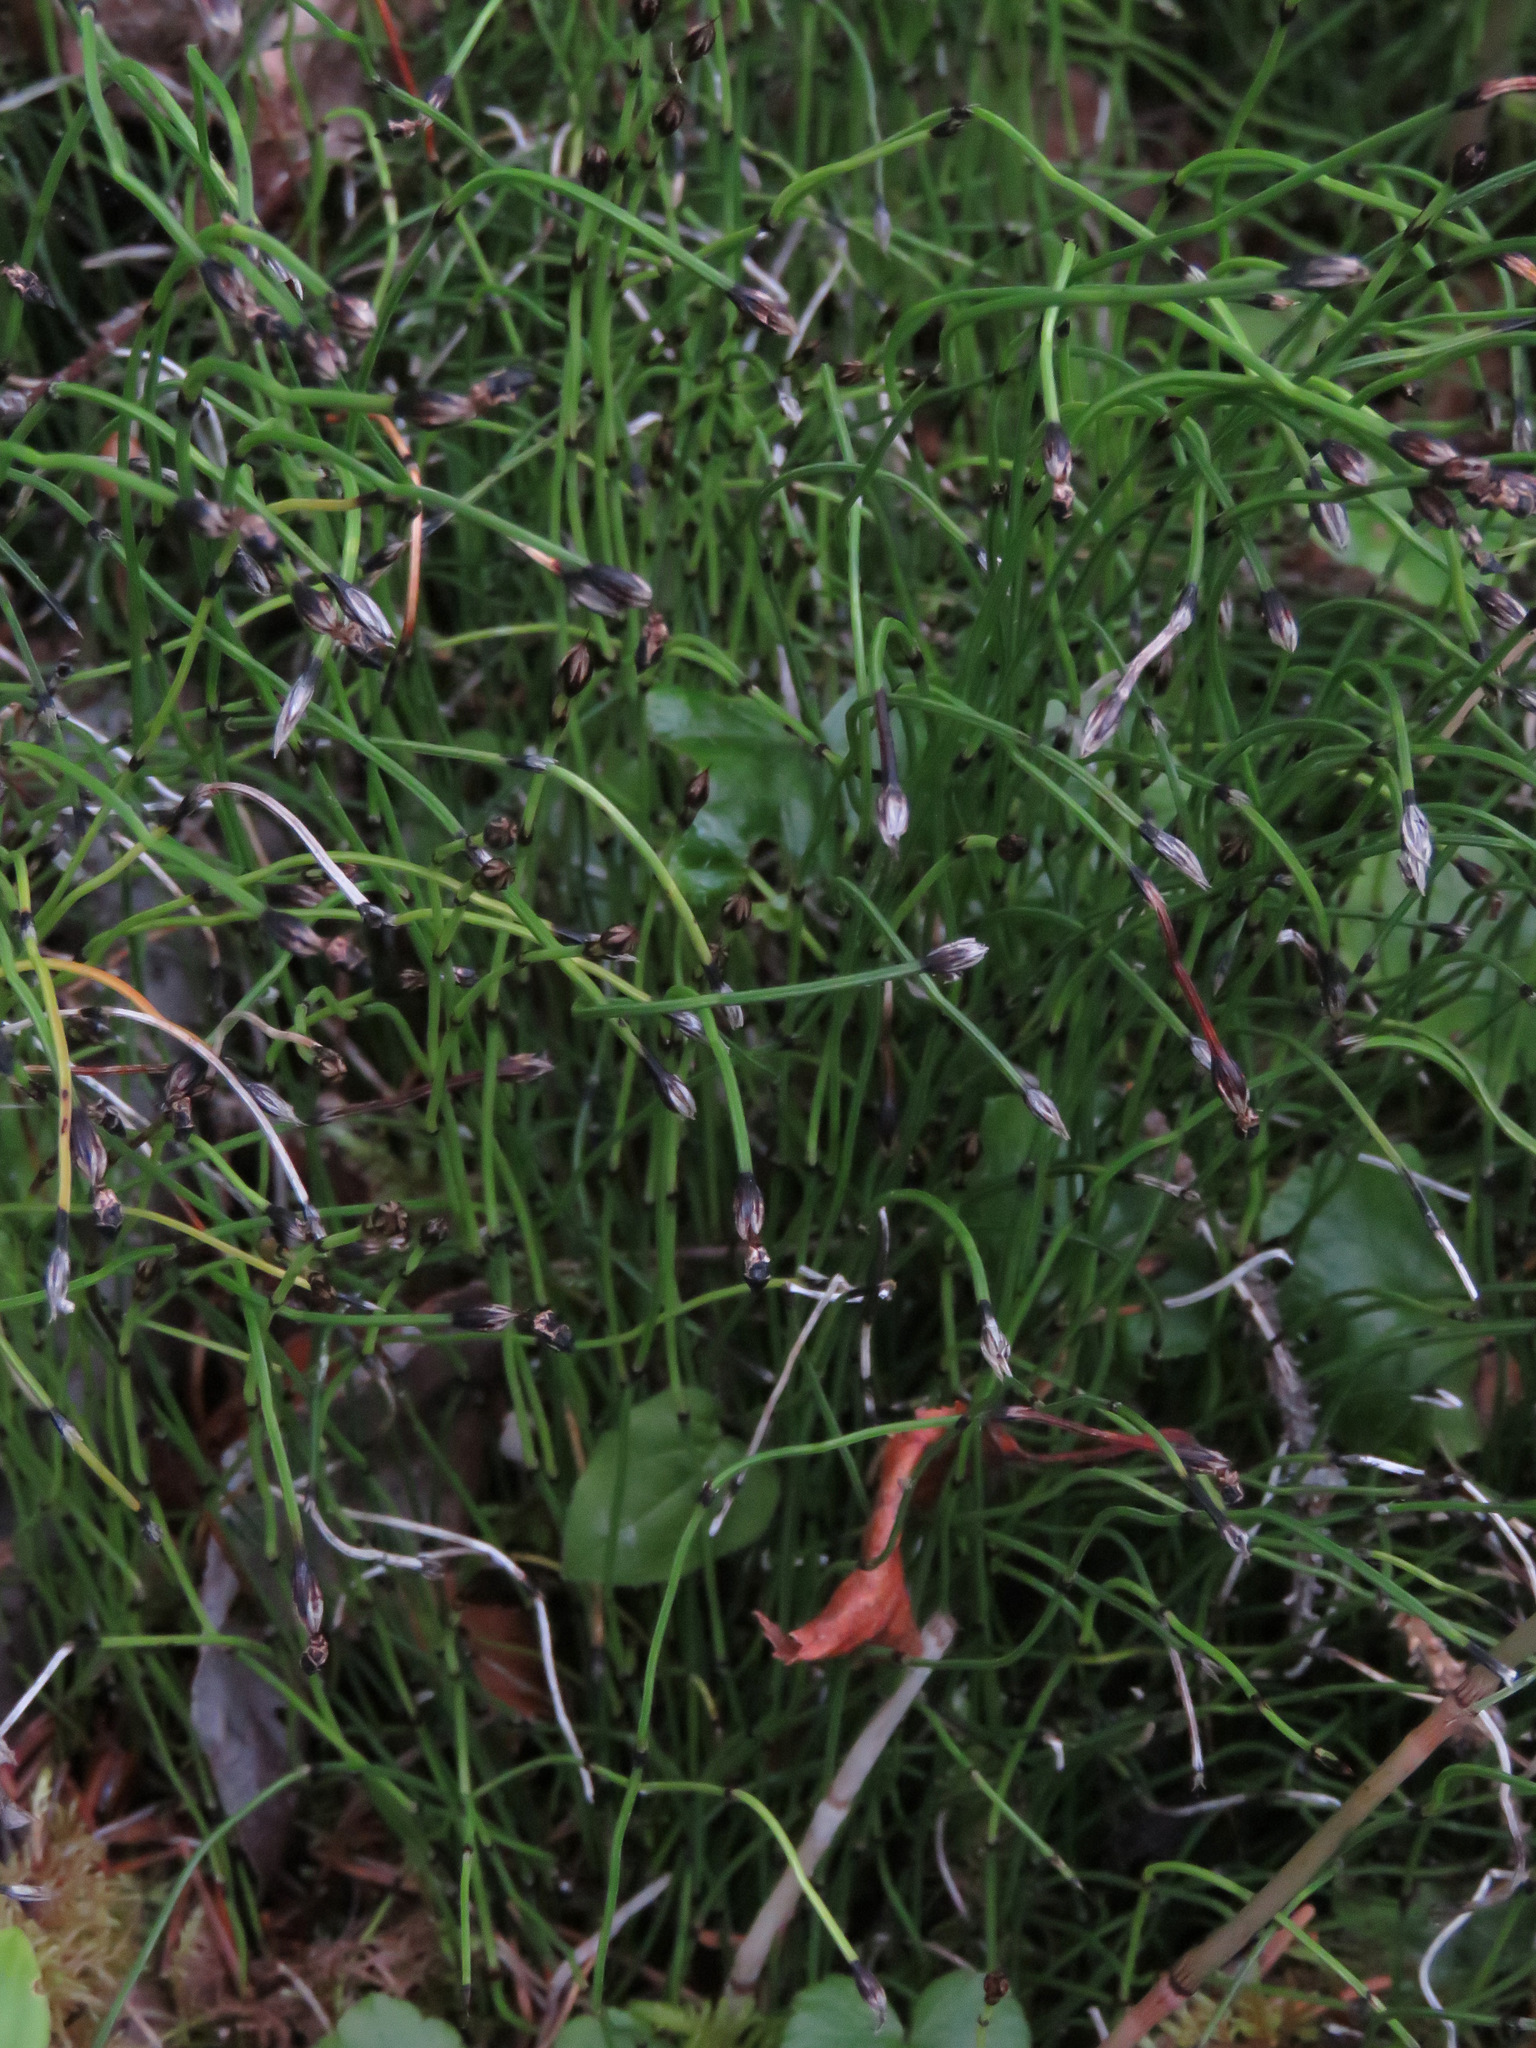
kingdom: Plantae
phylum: Tracheophyta
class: Polypodiopsida
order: Equisetales
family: Equisetaceae
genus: Equisetum
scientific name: Equisetum scirpoides
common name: Delicate horsetail
